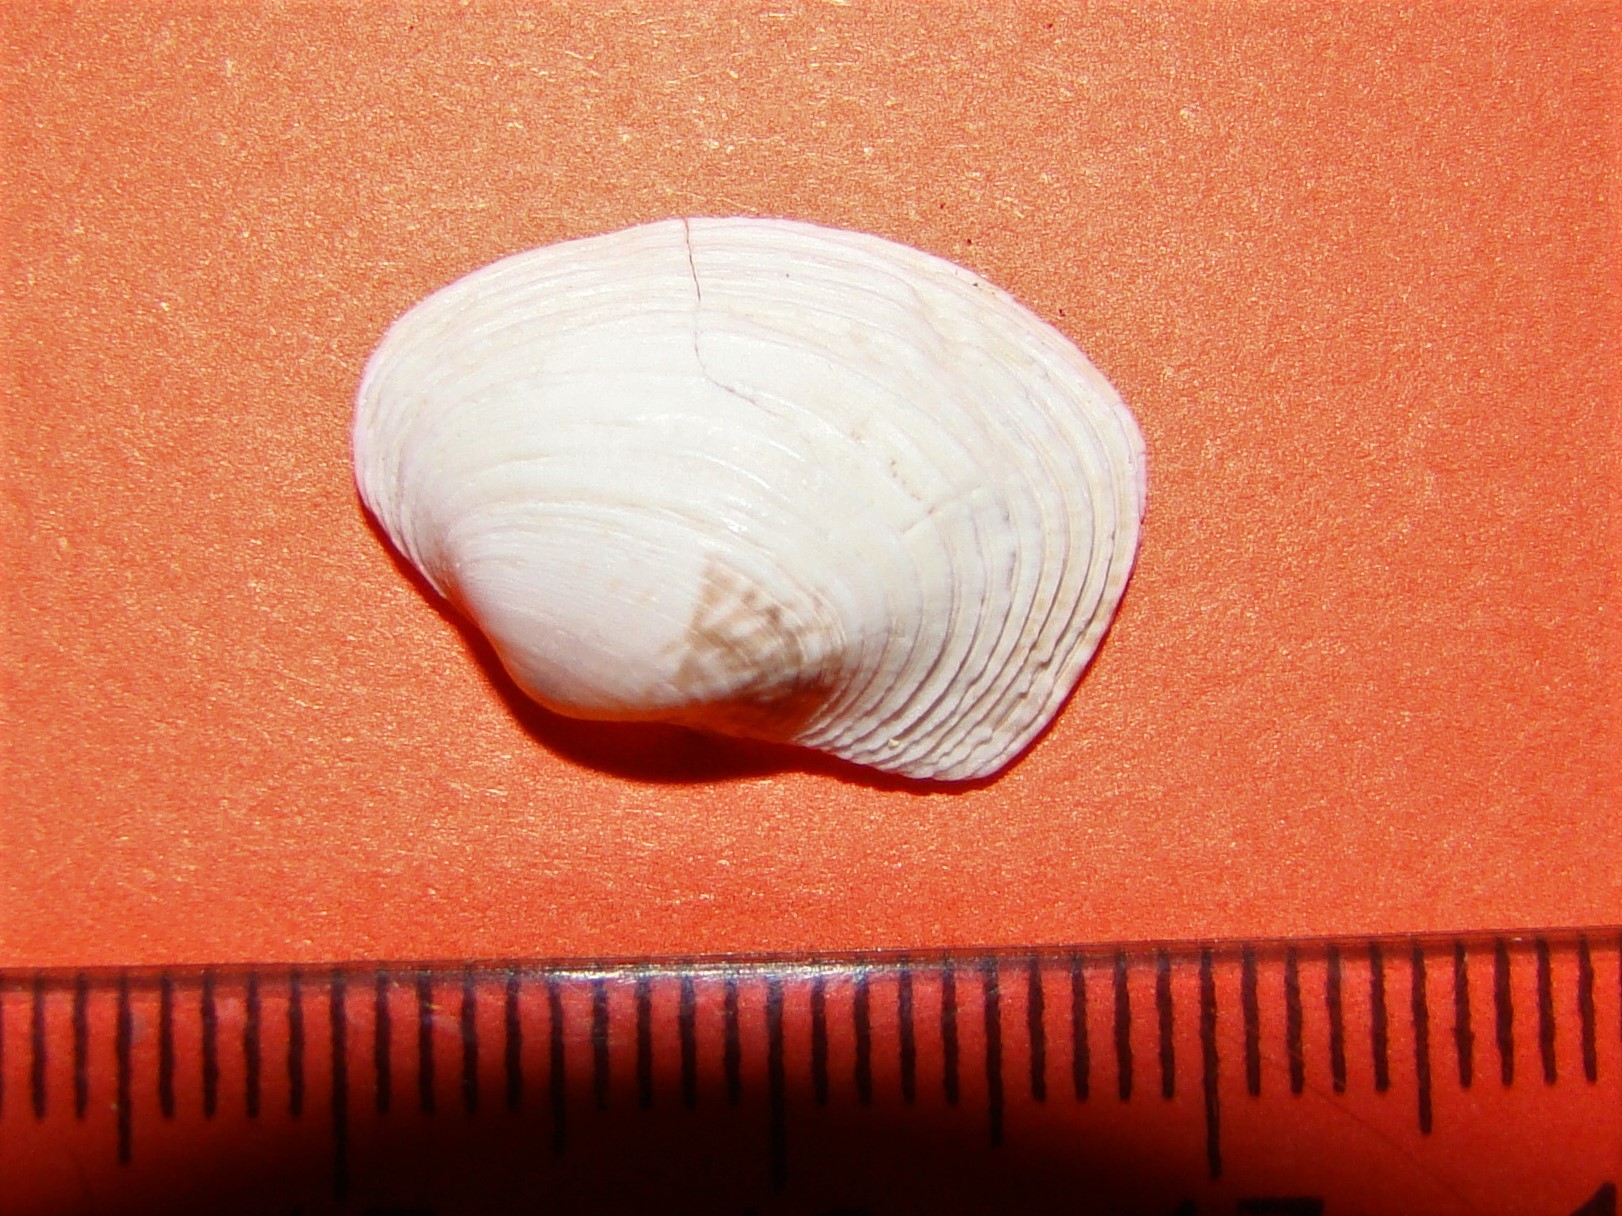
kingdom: Animalia
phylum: Mollusca
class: Bivalvia
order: Venerida
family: Veneridae
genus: Irus
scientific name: Irus reflexus
